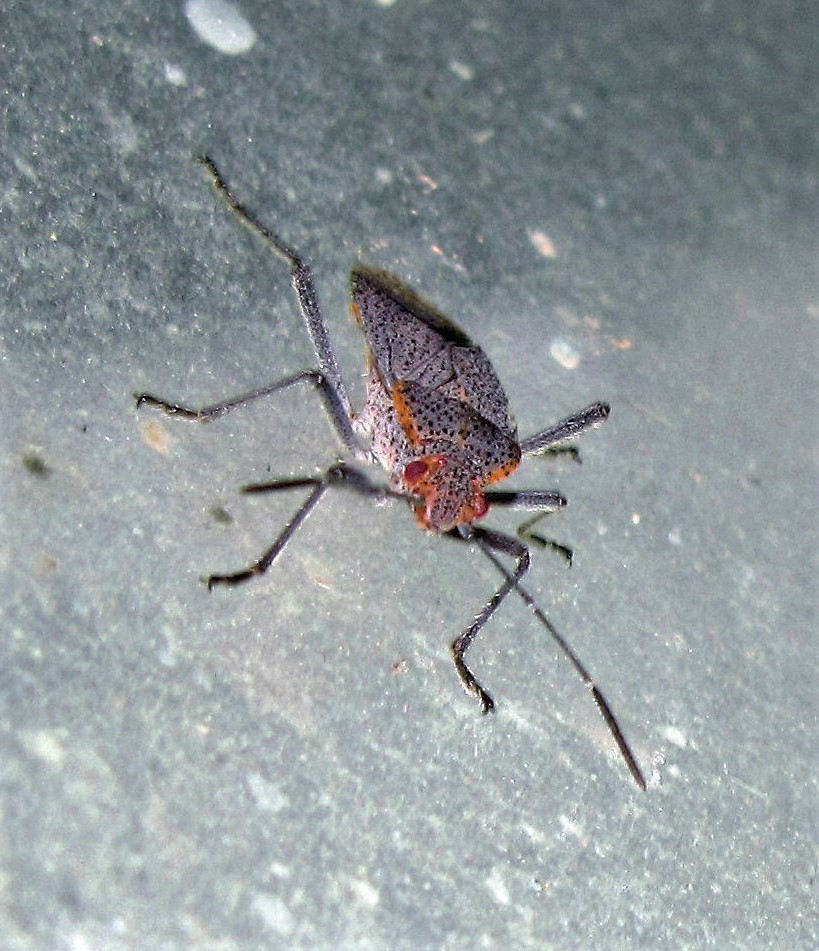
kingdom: Animalia
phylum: Arthropoda
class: Insecta
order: Hemiptera
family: Rhopalidae
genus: Jadera
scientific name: Jadera coturnix
